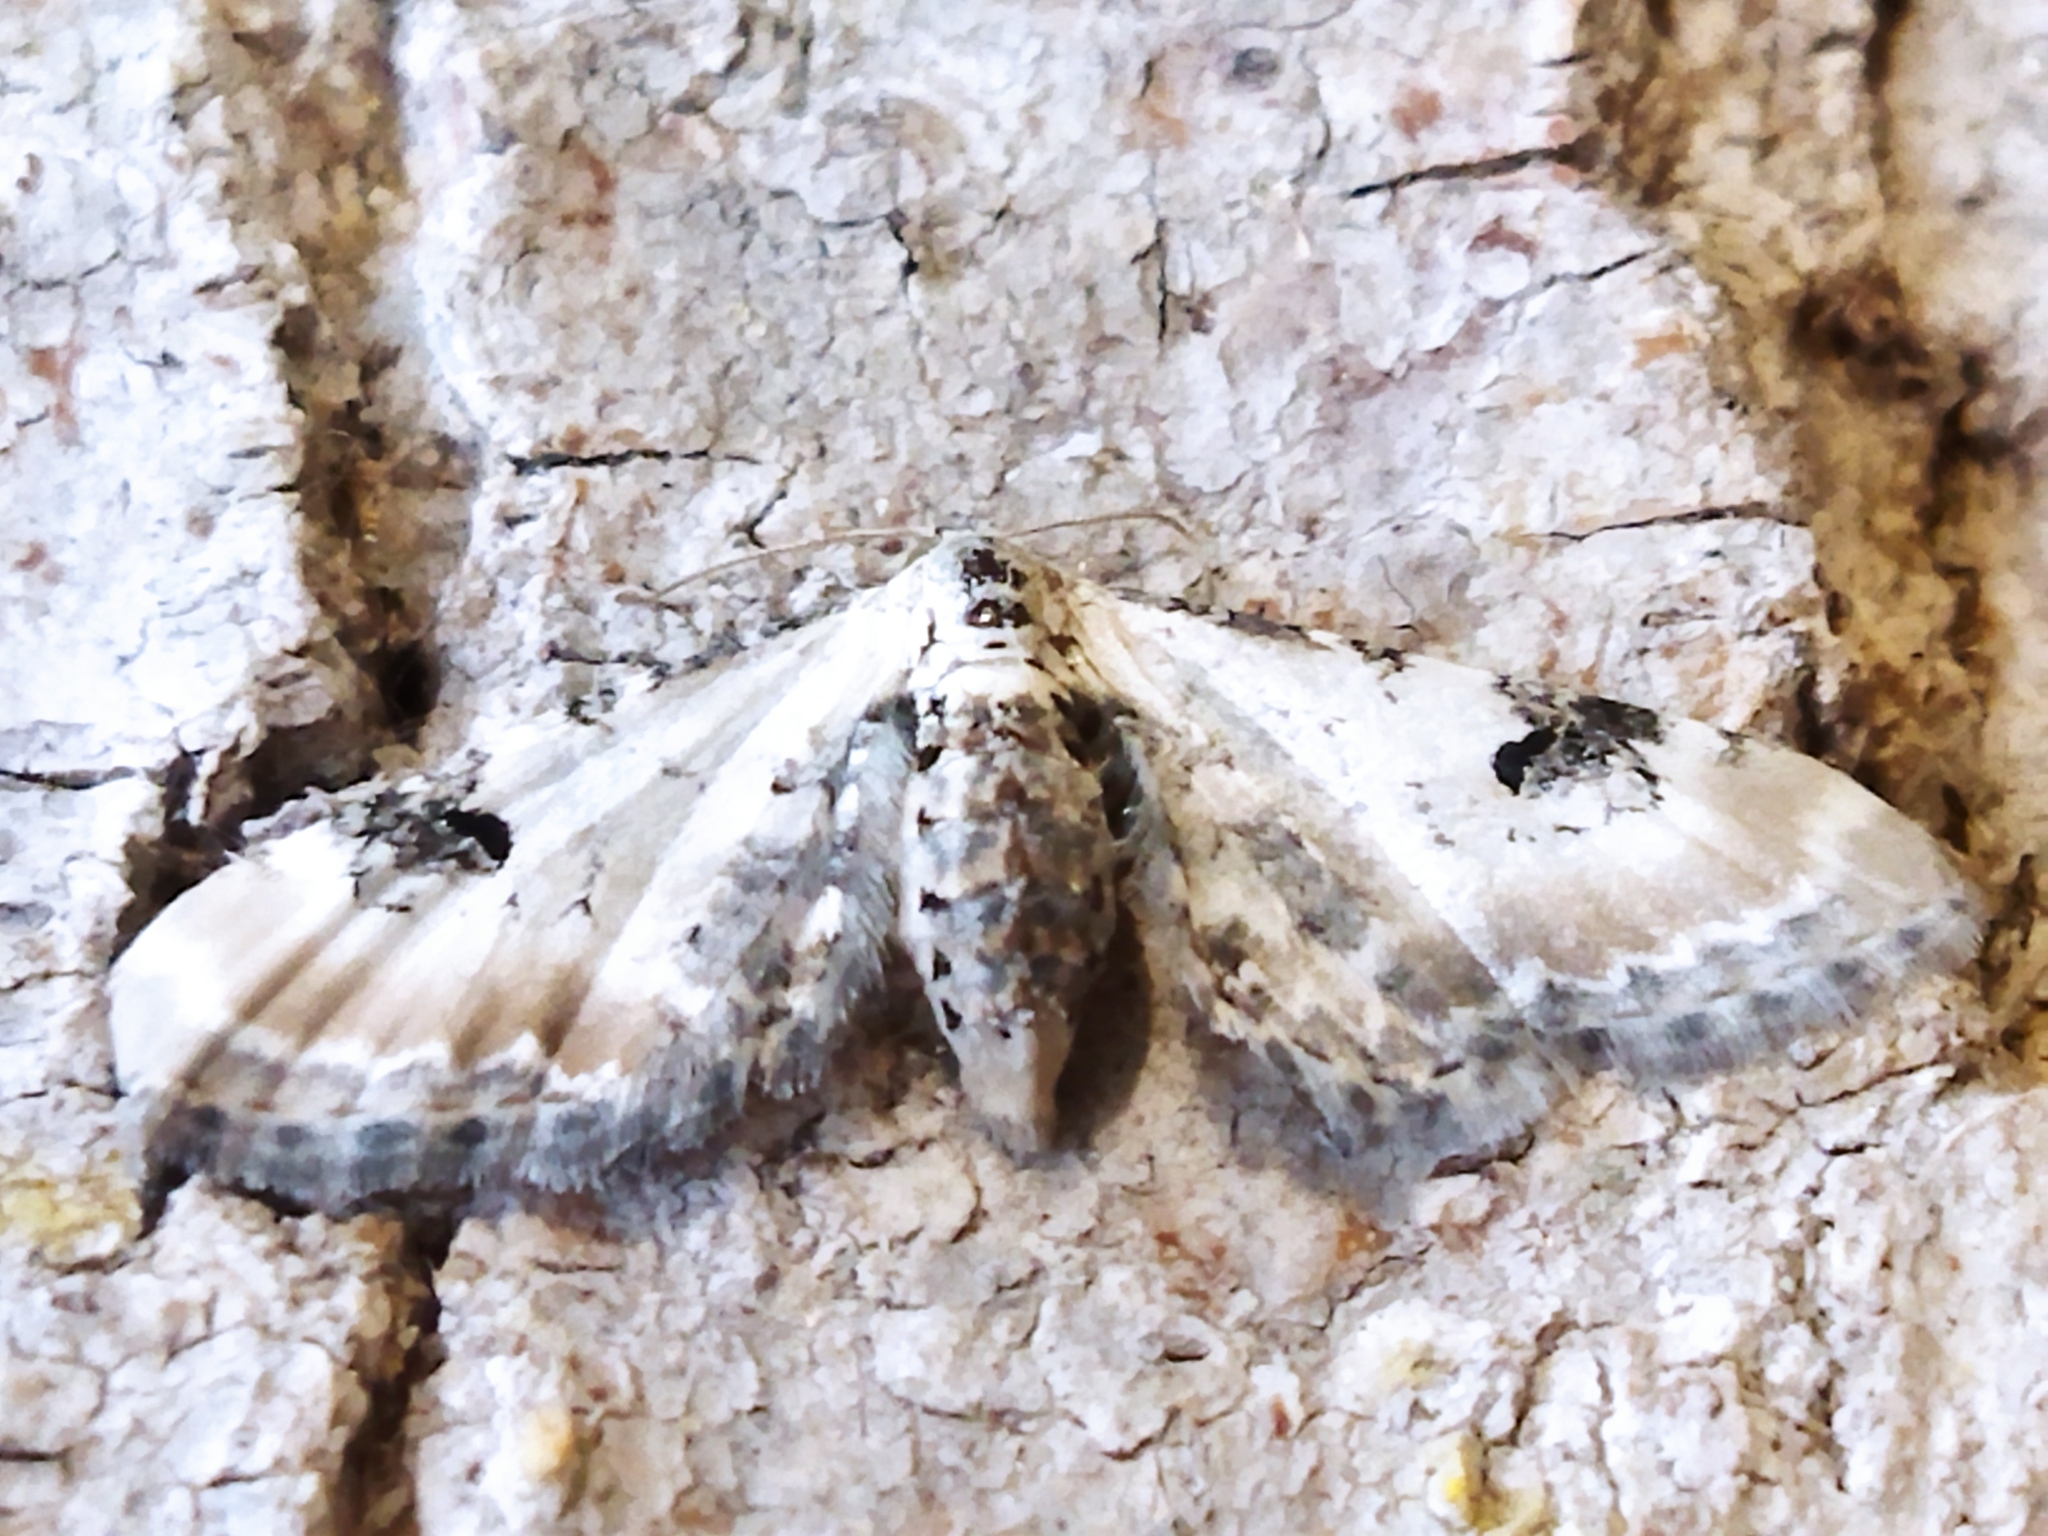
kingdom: Animalia
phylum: Arthropoda
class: Insecta
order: Lepidoptera
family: Geometridae
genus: Eupithecia
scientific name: Eupithecia centaureata
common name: Lime-speck pug
